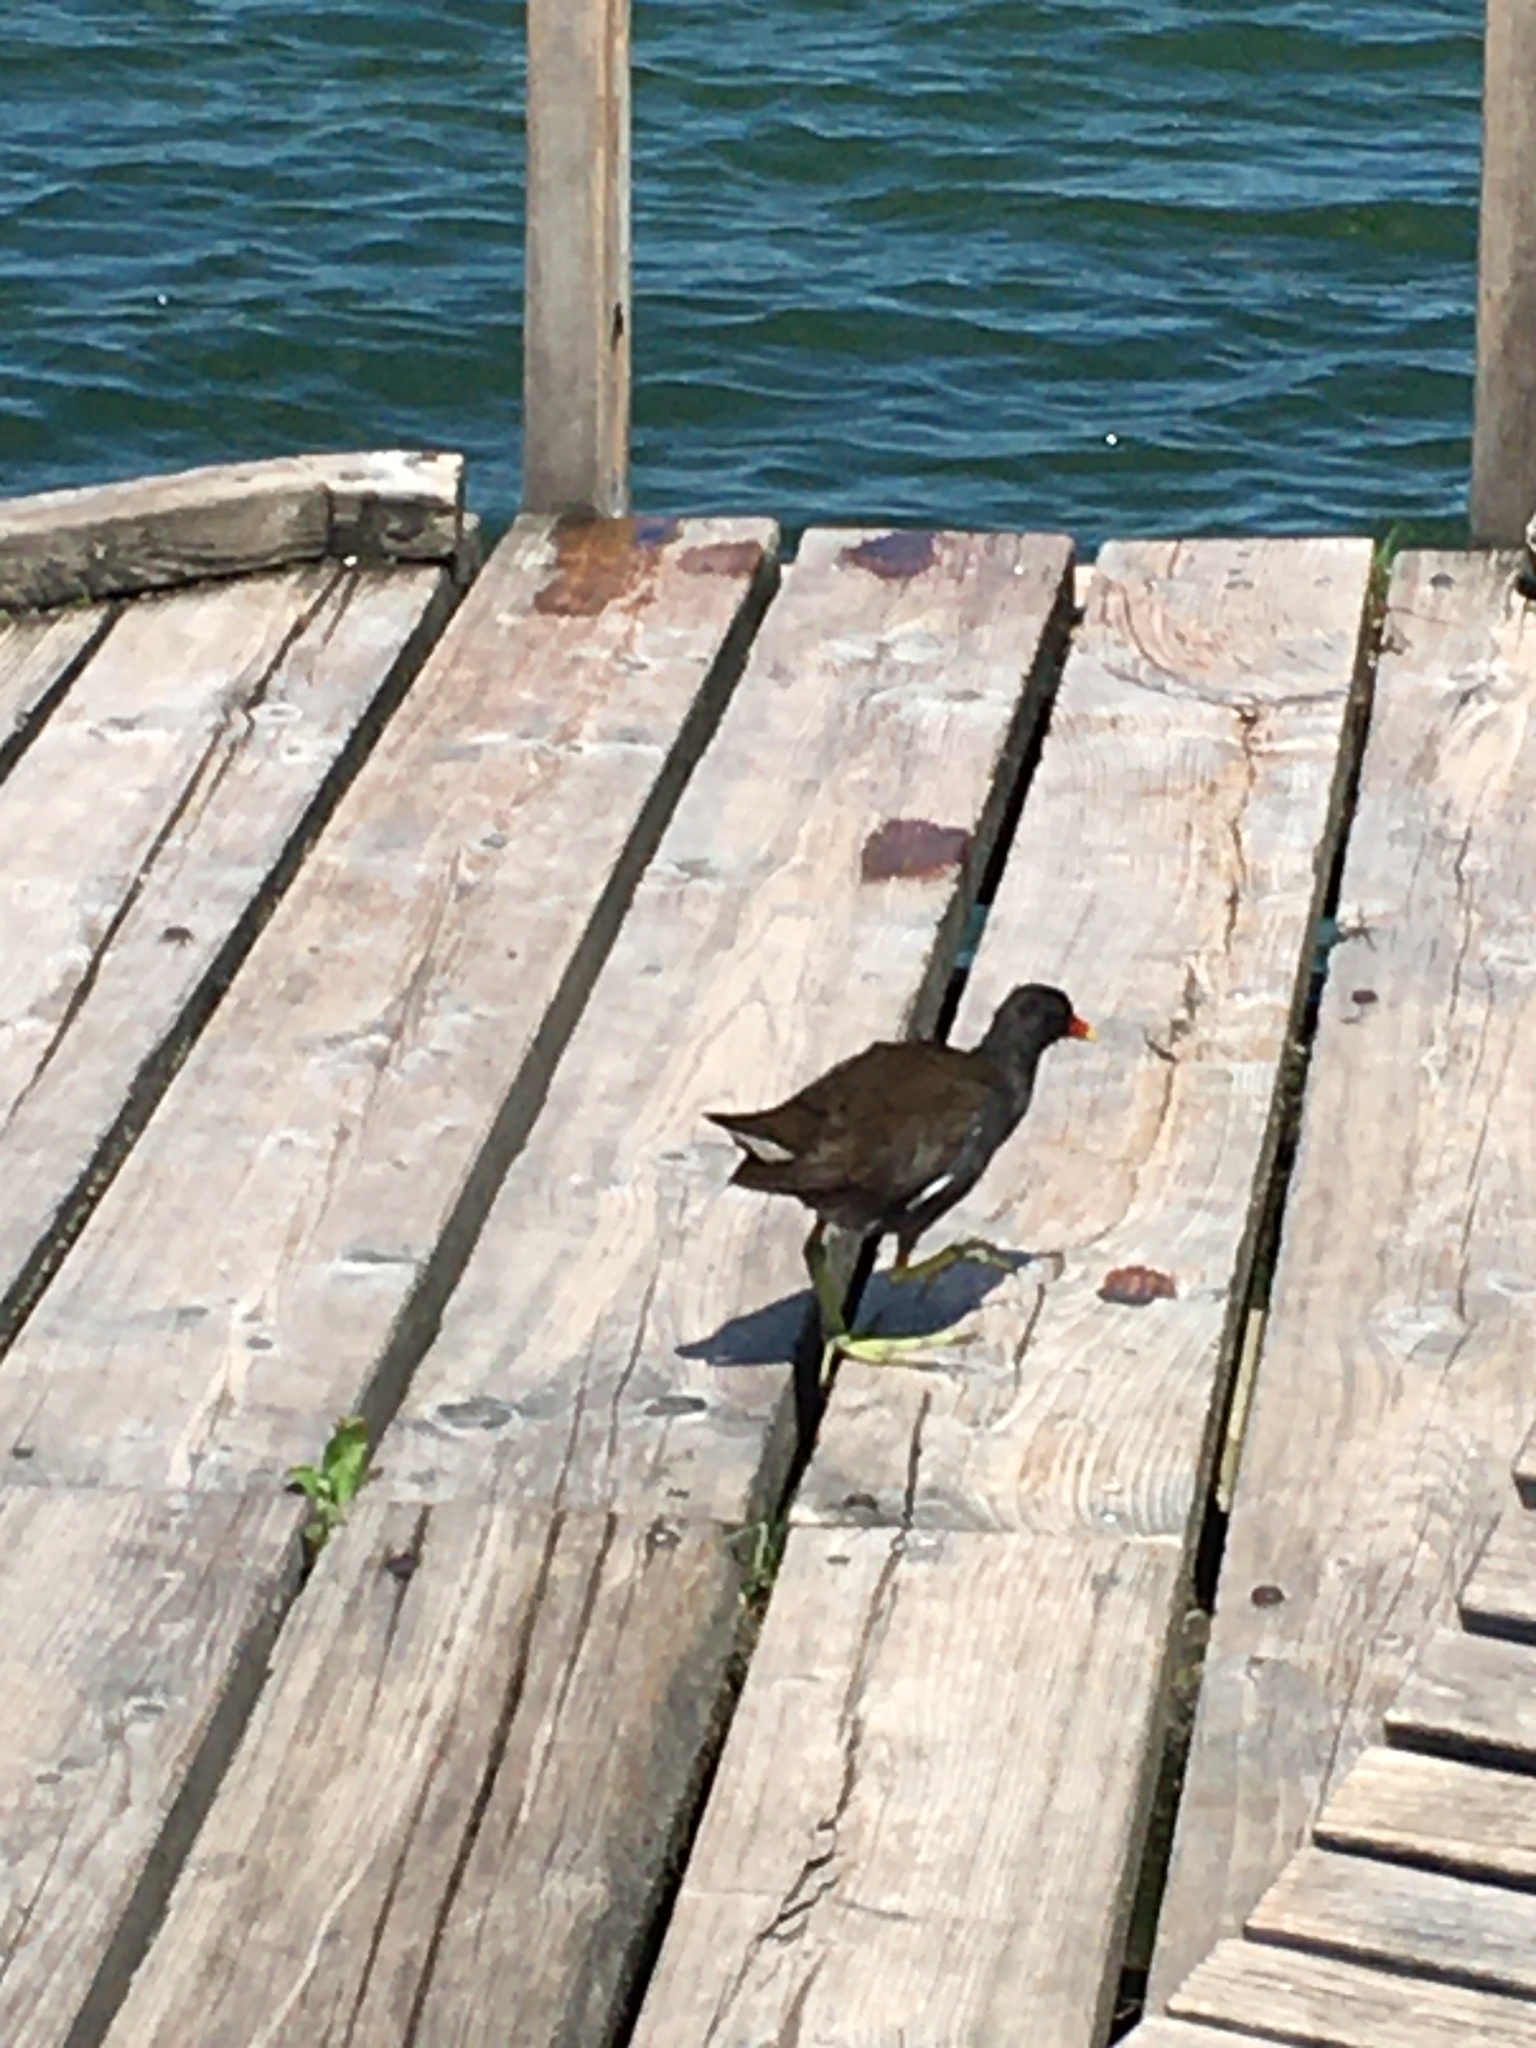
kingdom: Animalia
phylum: Chordata
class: Aves
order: Gruiformes
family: Rallidae
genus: Gallinula
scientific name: Gallinula chloropus
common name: Common moorhen
